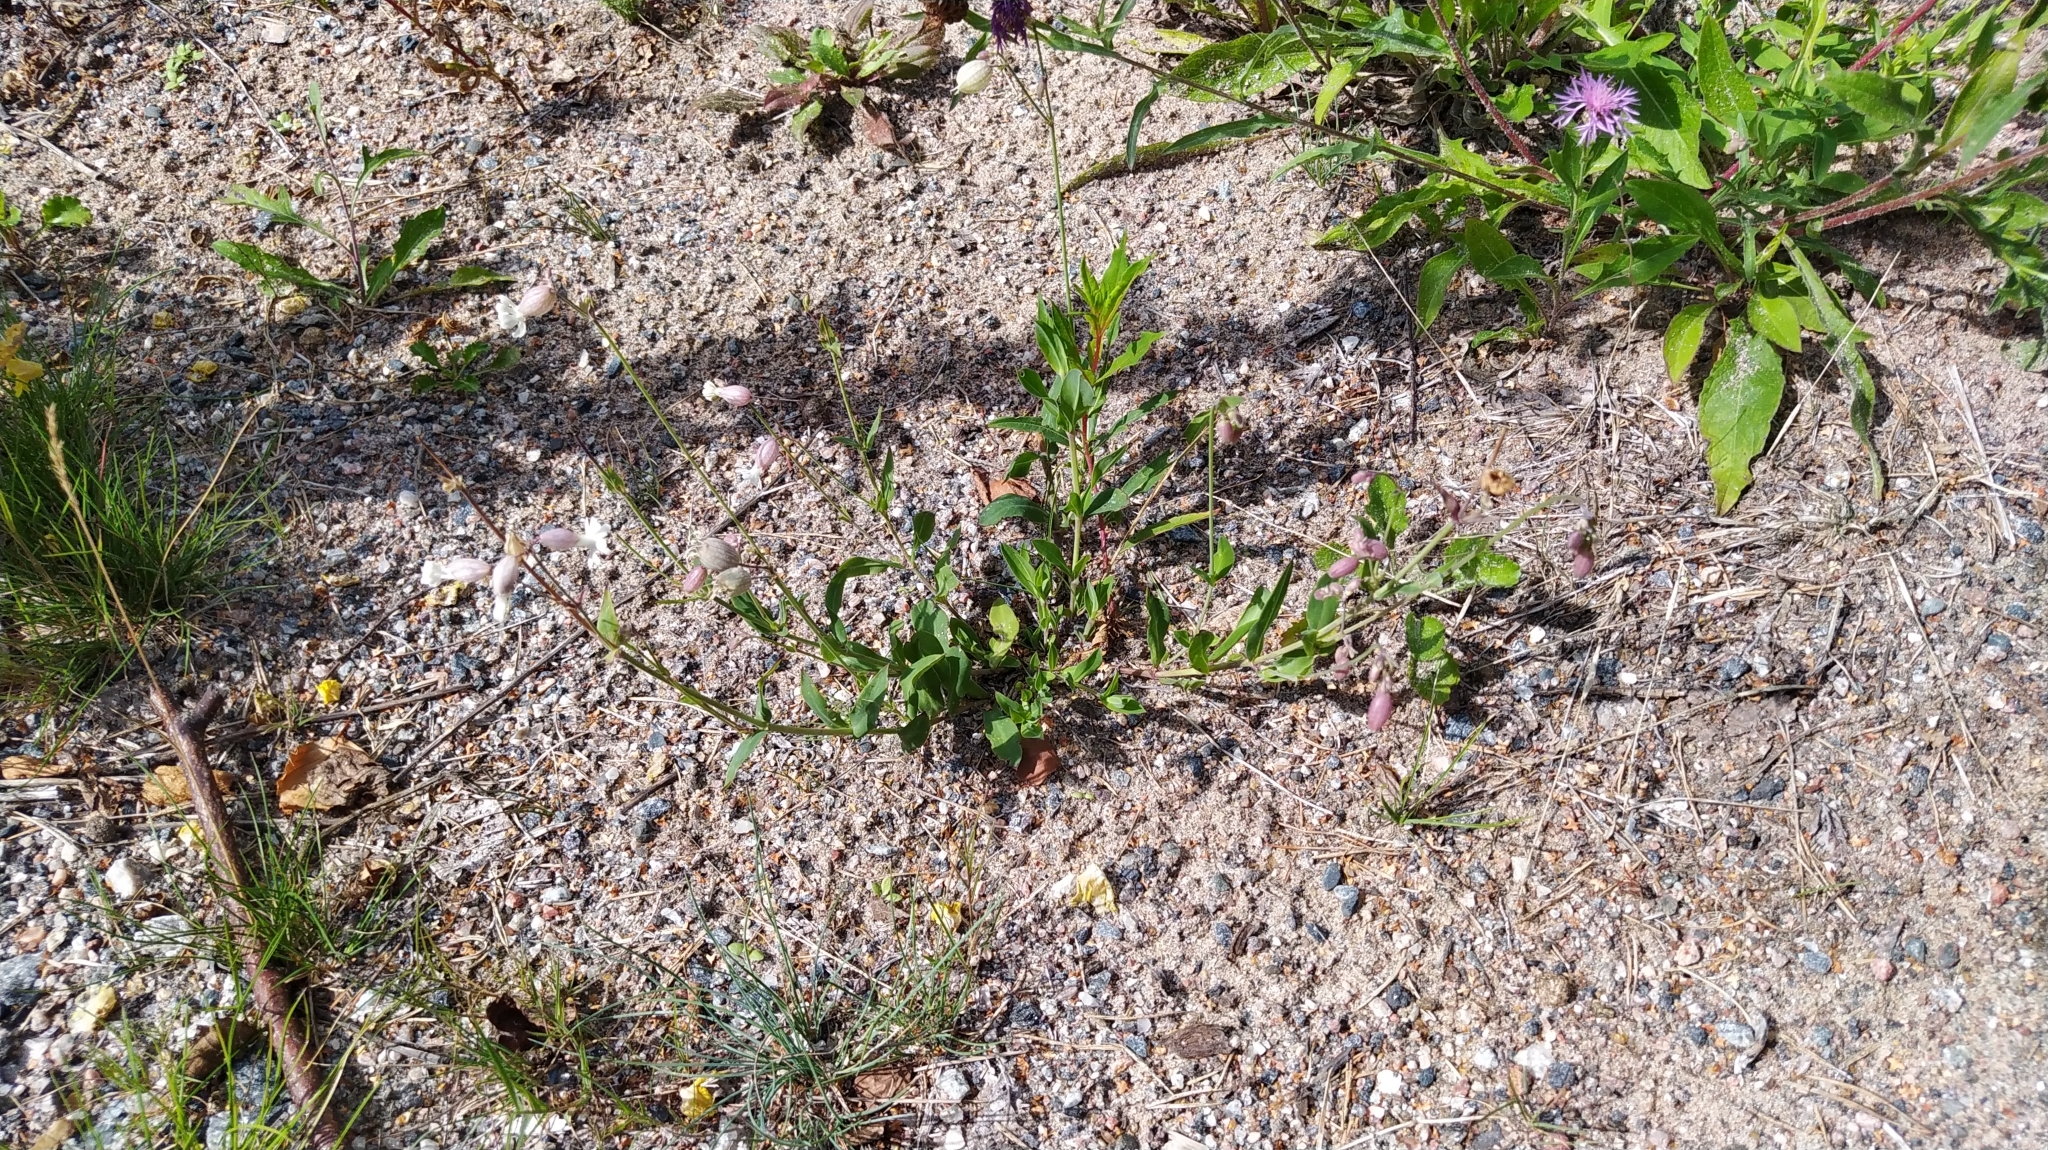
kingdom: Plantae
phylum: Tracheophyta
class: Magnoliopsida
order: Caryophyllales
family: Caryophyllaceae
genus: Silene
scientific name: Silene vulgaris
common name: Bladder campion
